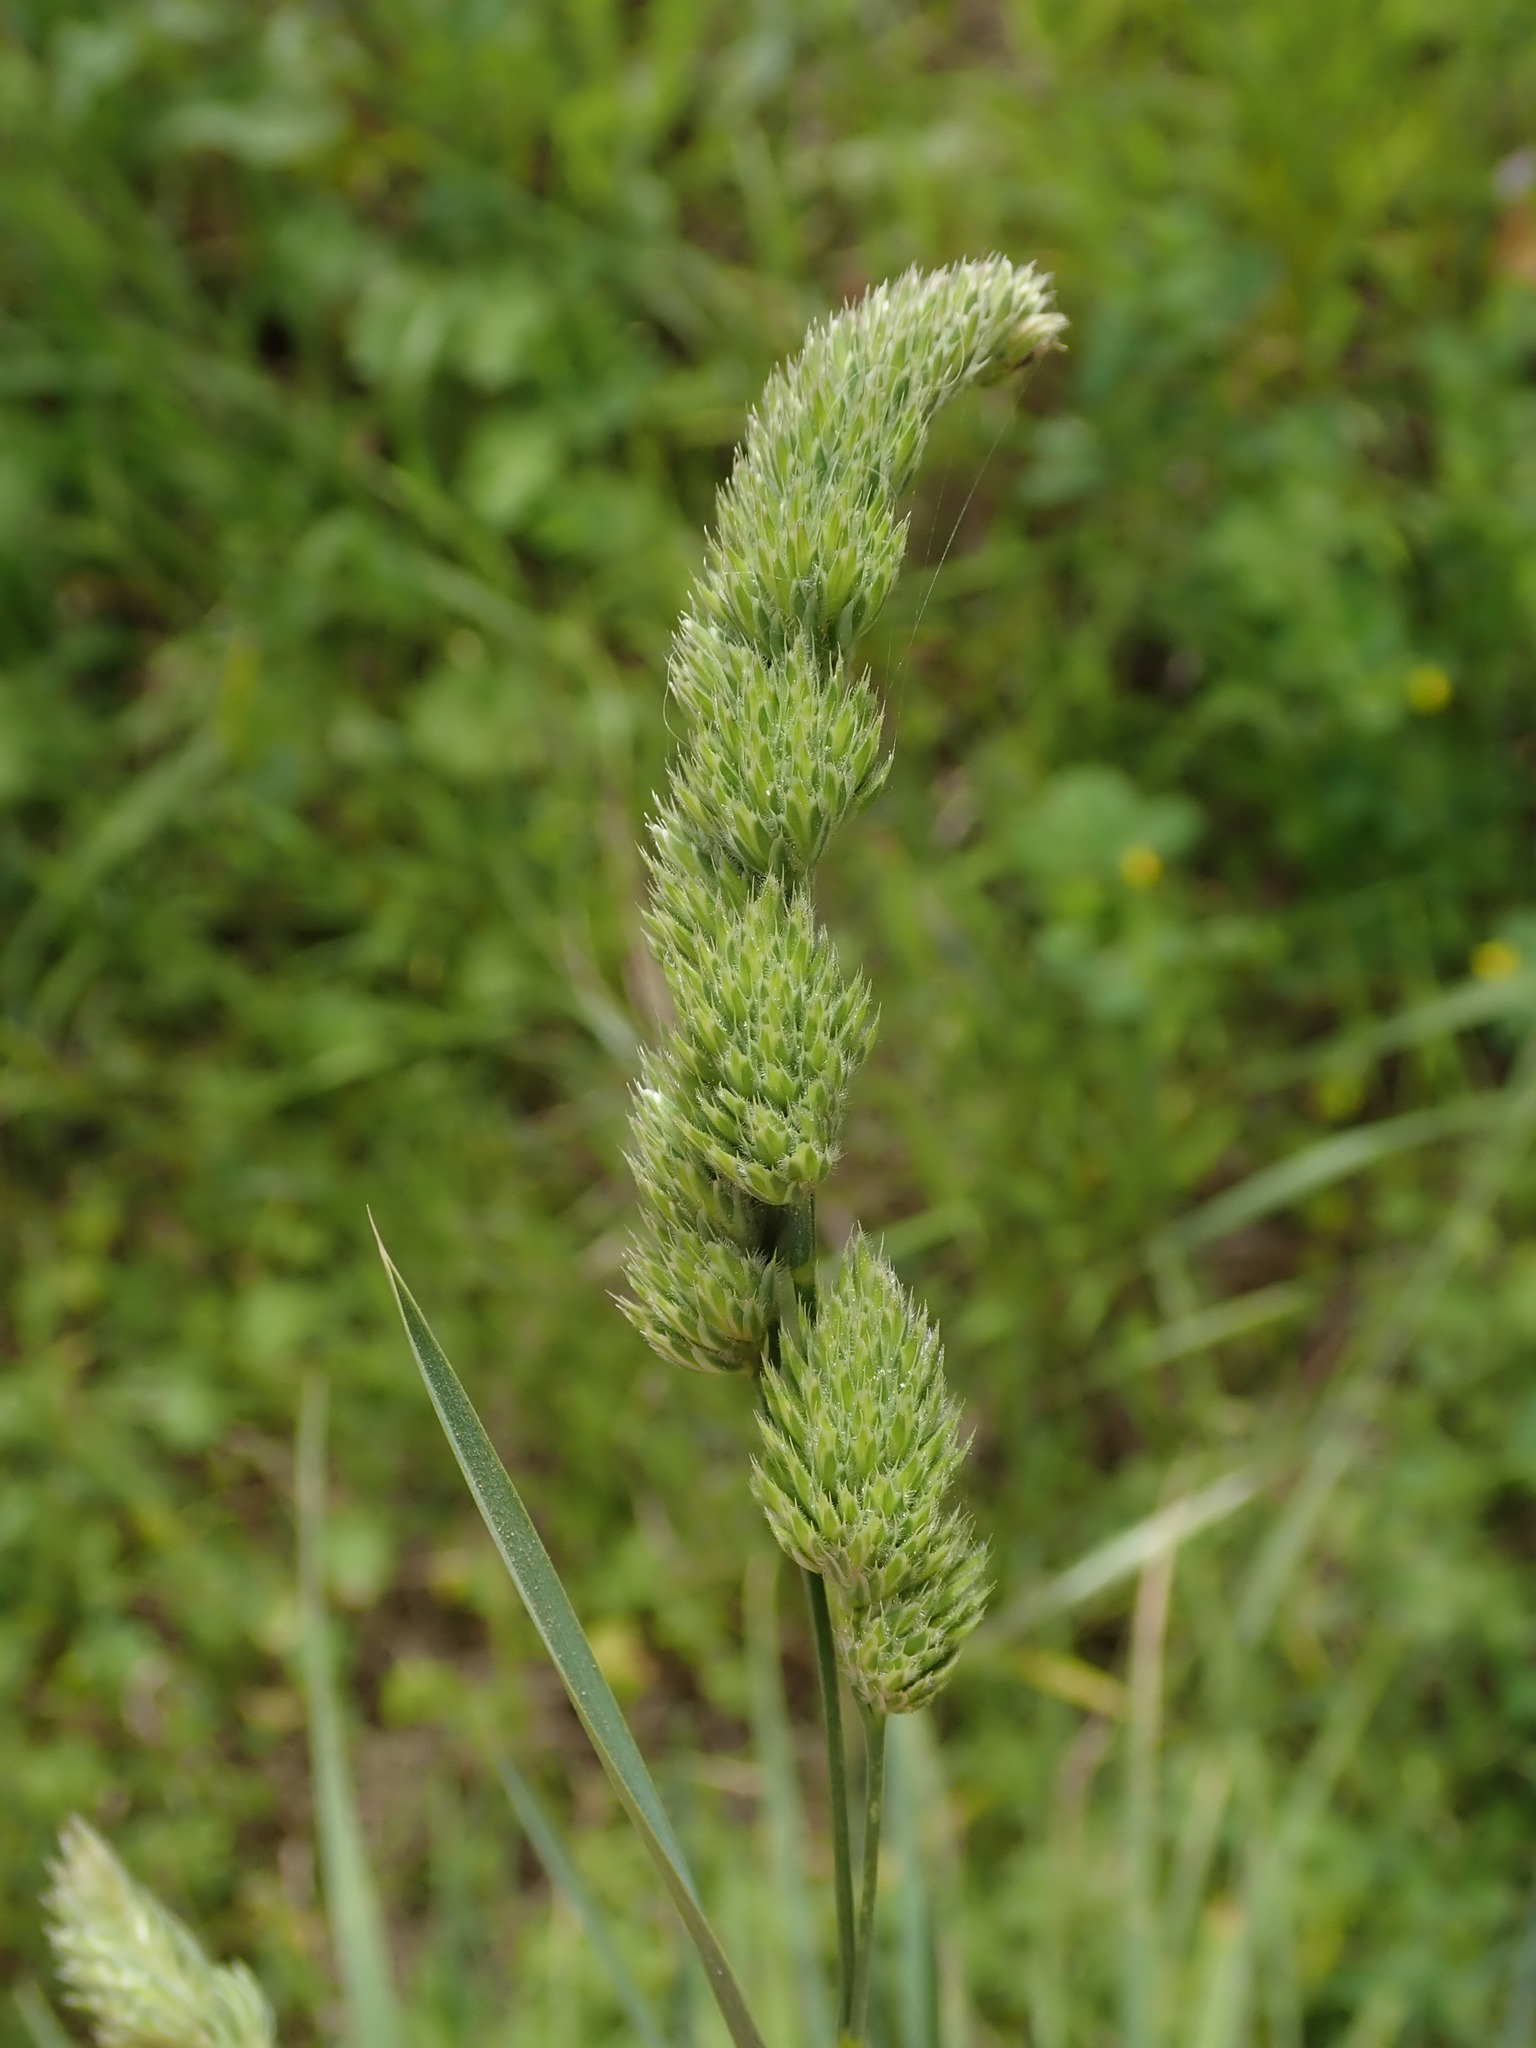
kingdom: Plantae
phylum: Tracheophyta
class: Liliopsida
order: Poales
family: Poaceae
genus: Dactylis
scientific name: Dactylis glomerata
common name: Orchardgrass
